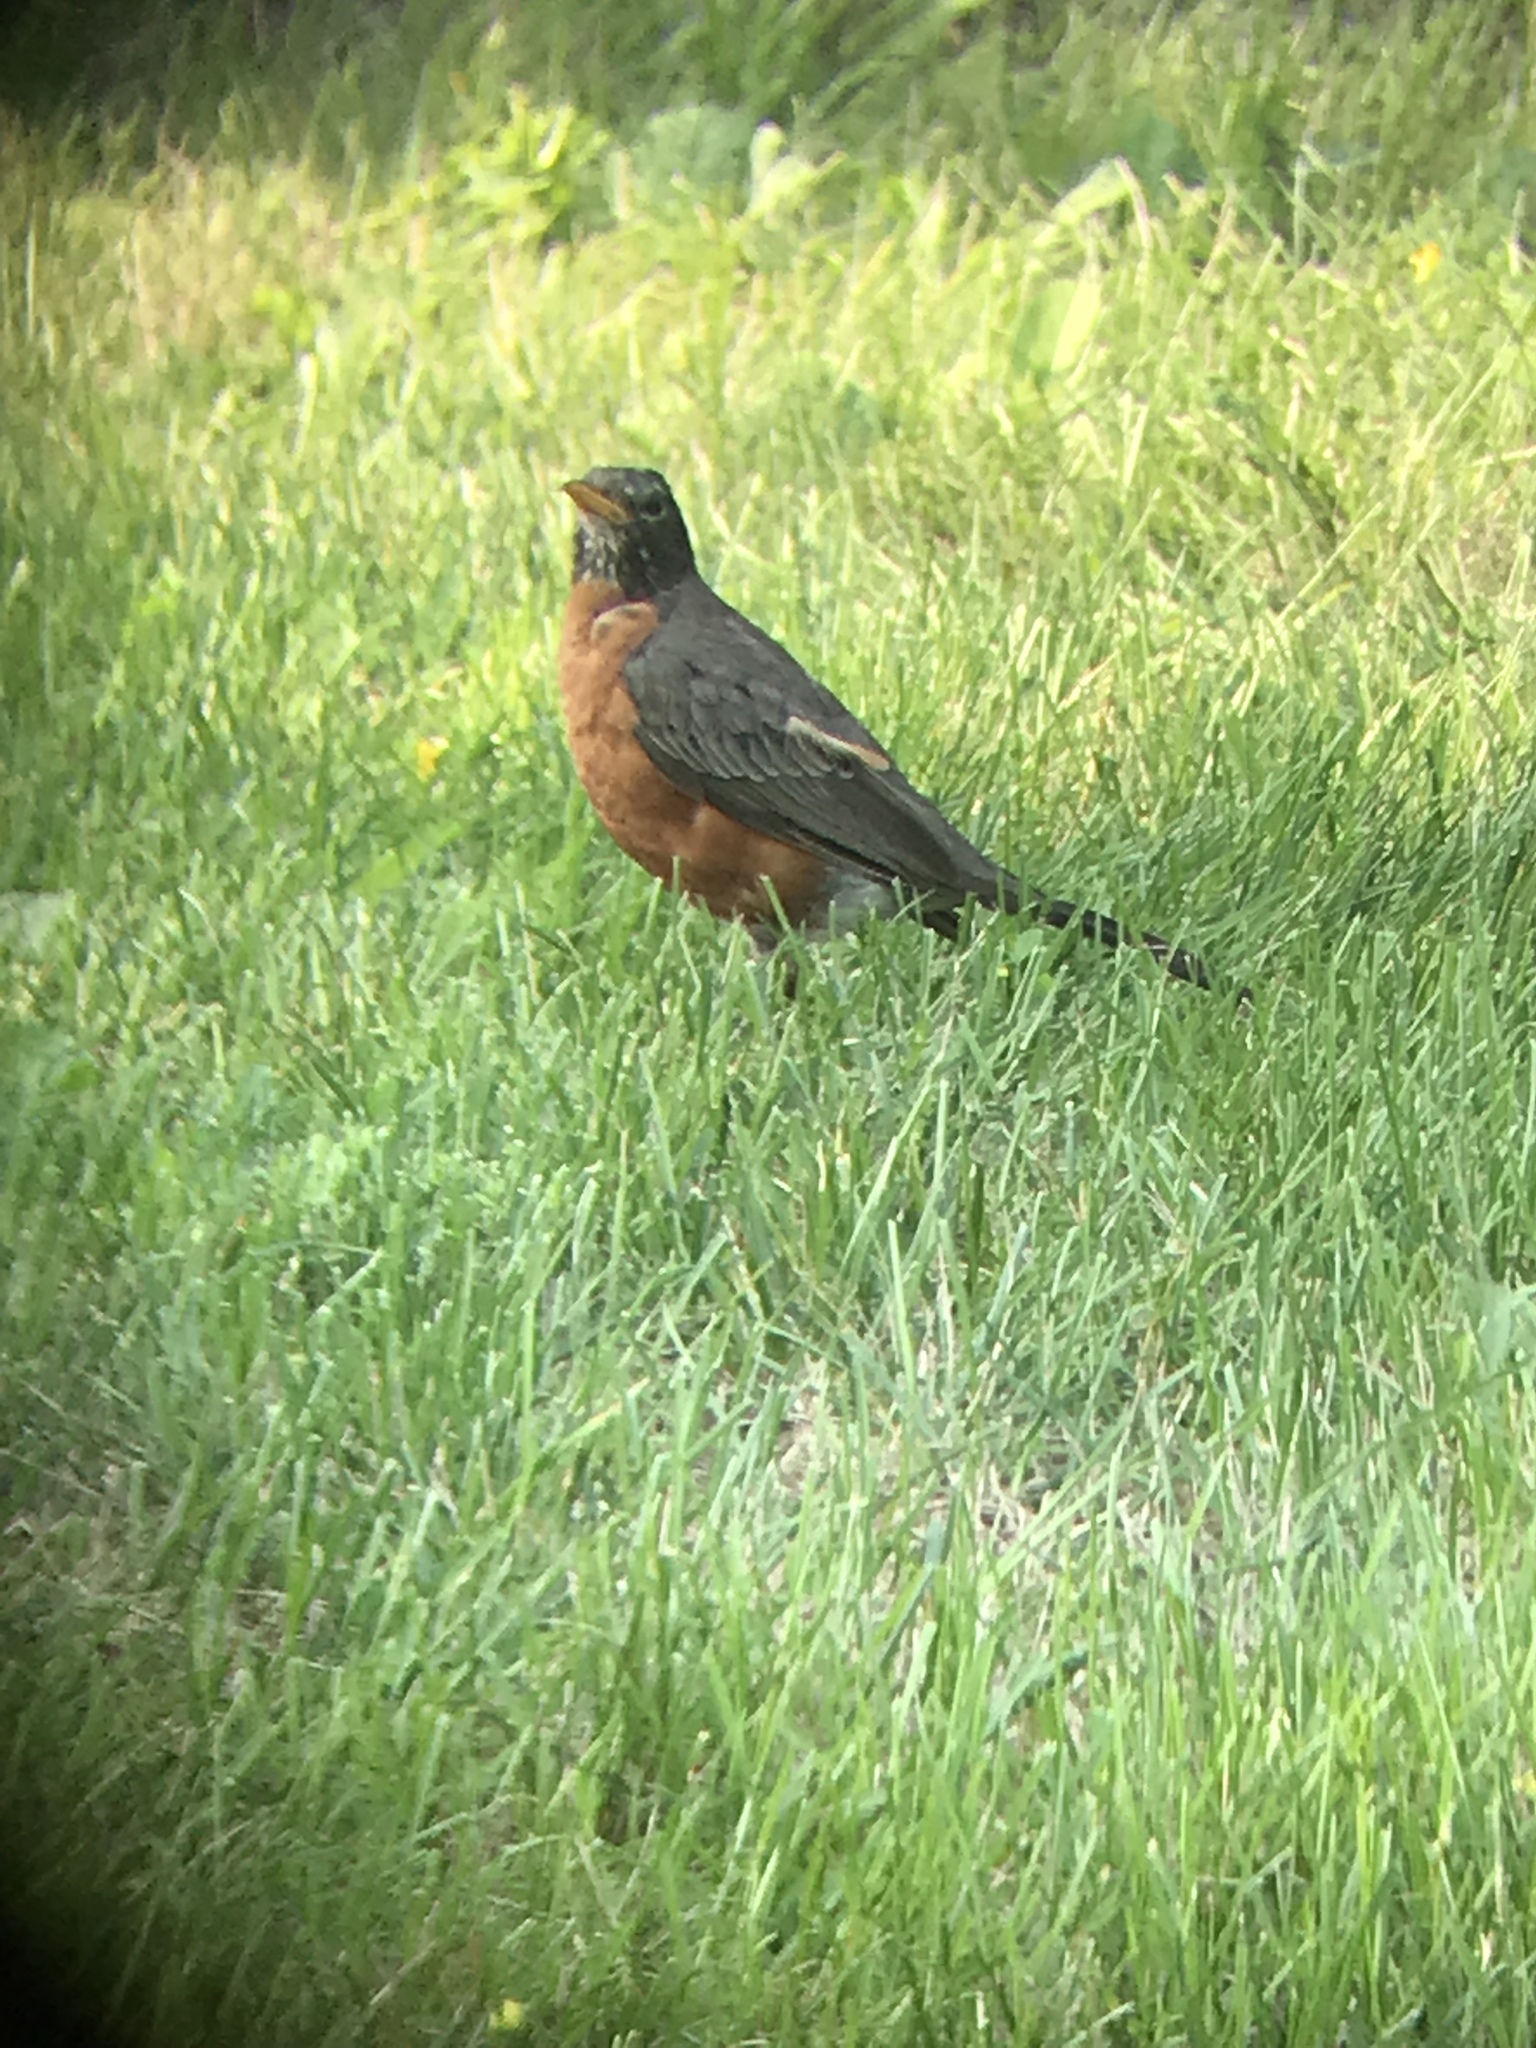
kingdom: Animalia
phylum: Chordata
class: Aves
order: Passeriformes
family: Turdidae
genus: Turdus
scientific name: Turdus migratorius
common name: American robin
